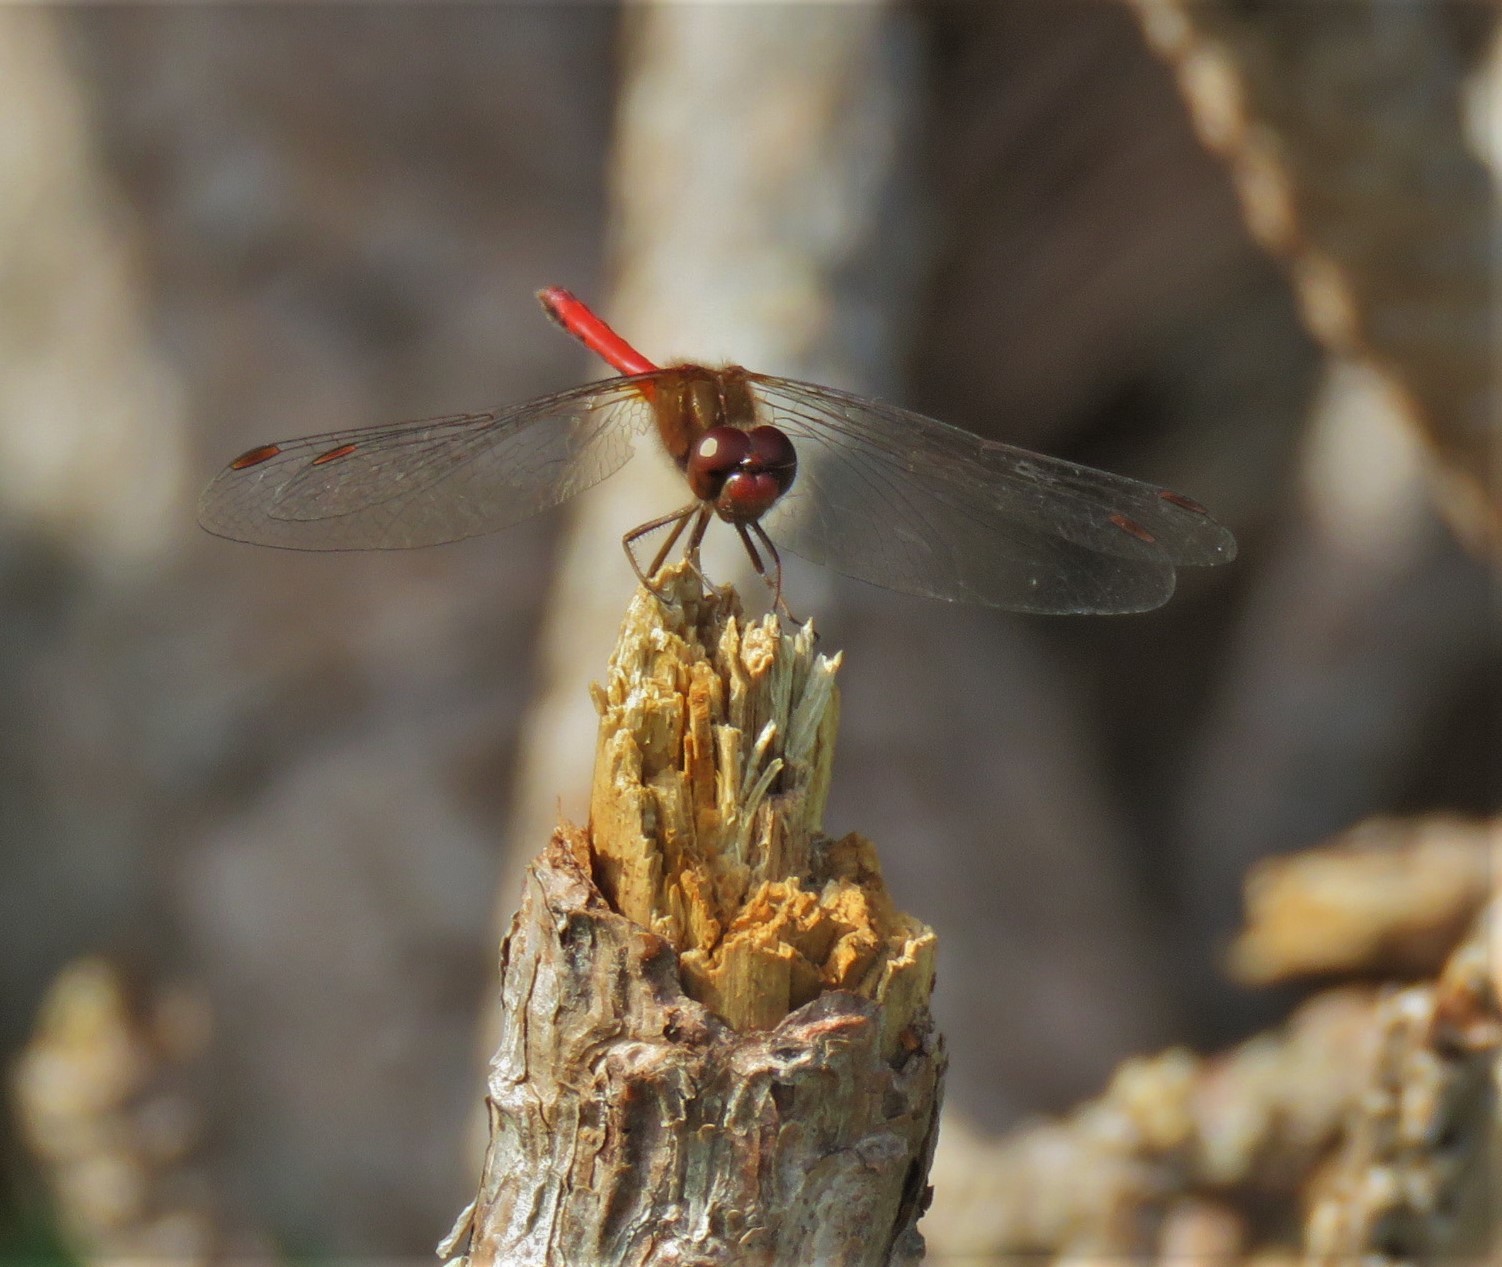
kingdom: Animalia
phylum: Arthropoda
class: Insecta
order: Odonata
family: Libellulidae
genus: Sympetrum
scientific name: Sympetrum vicinum
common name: Autumn meadowhawk
